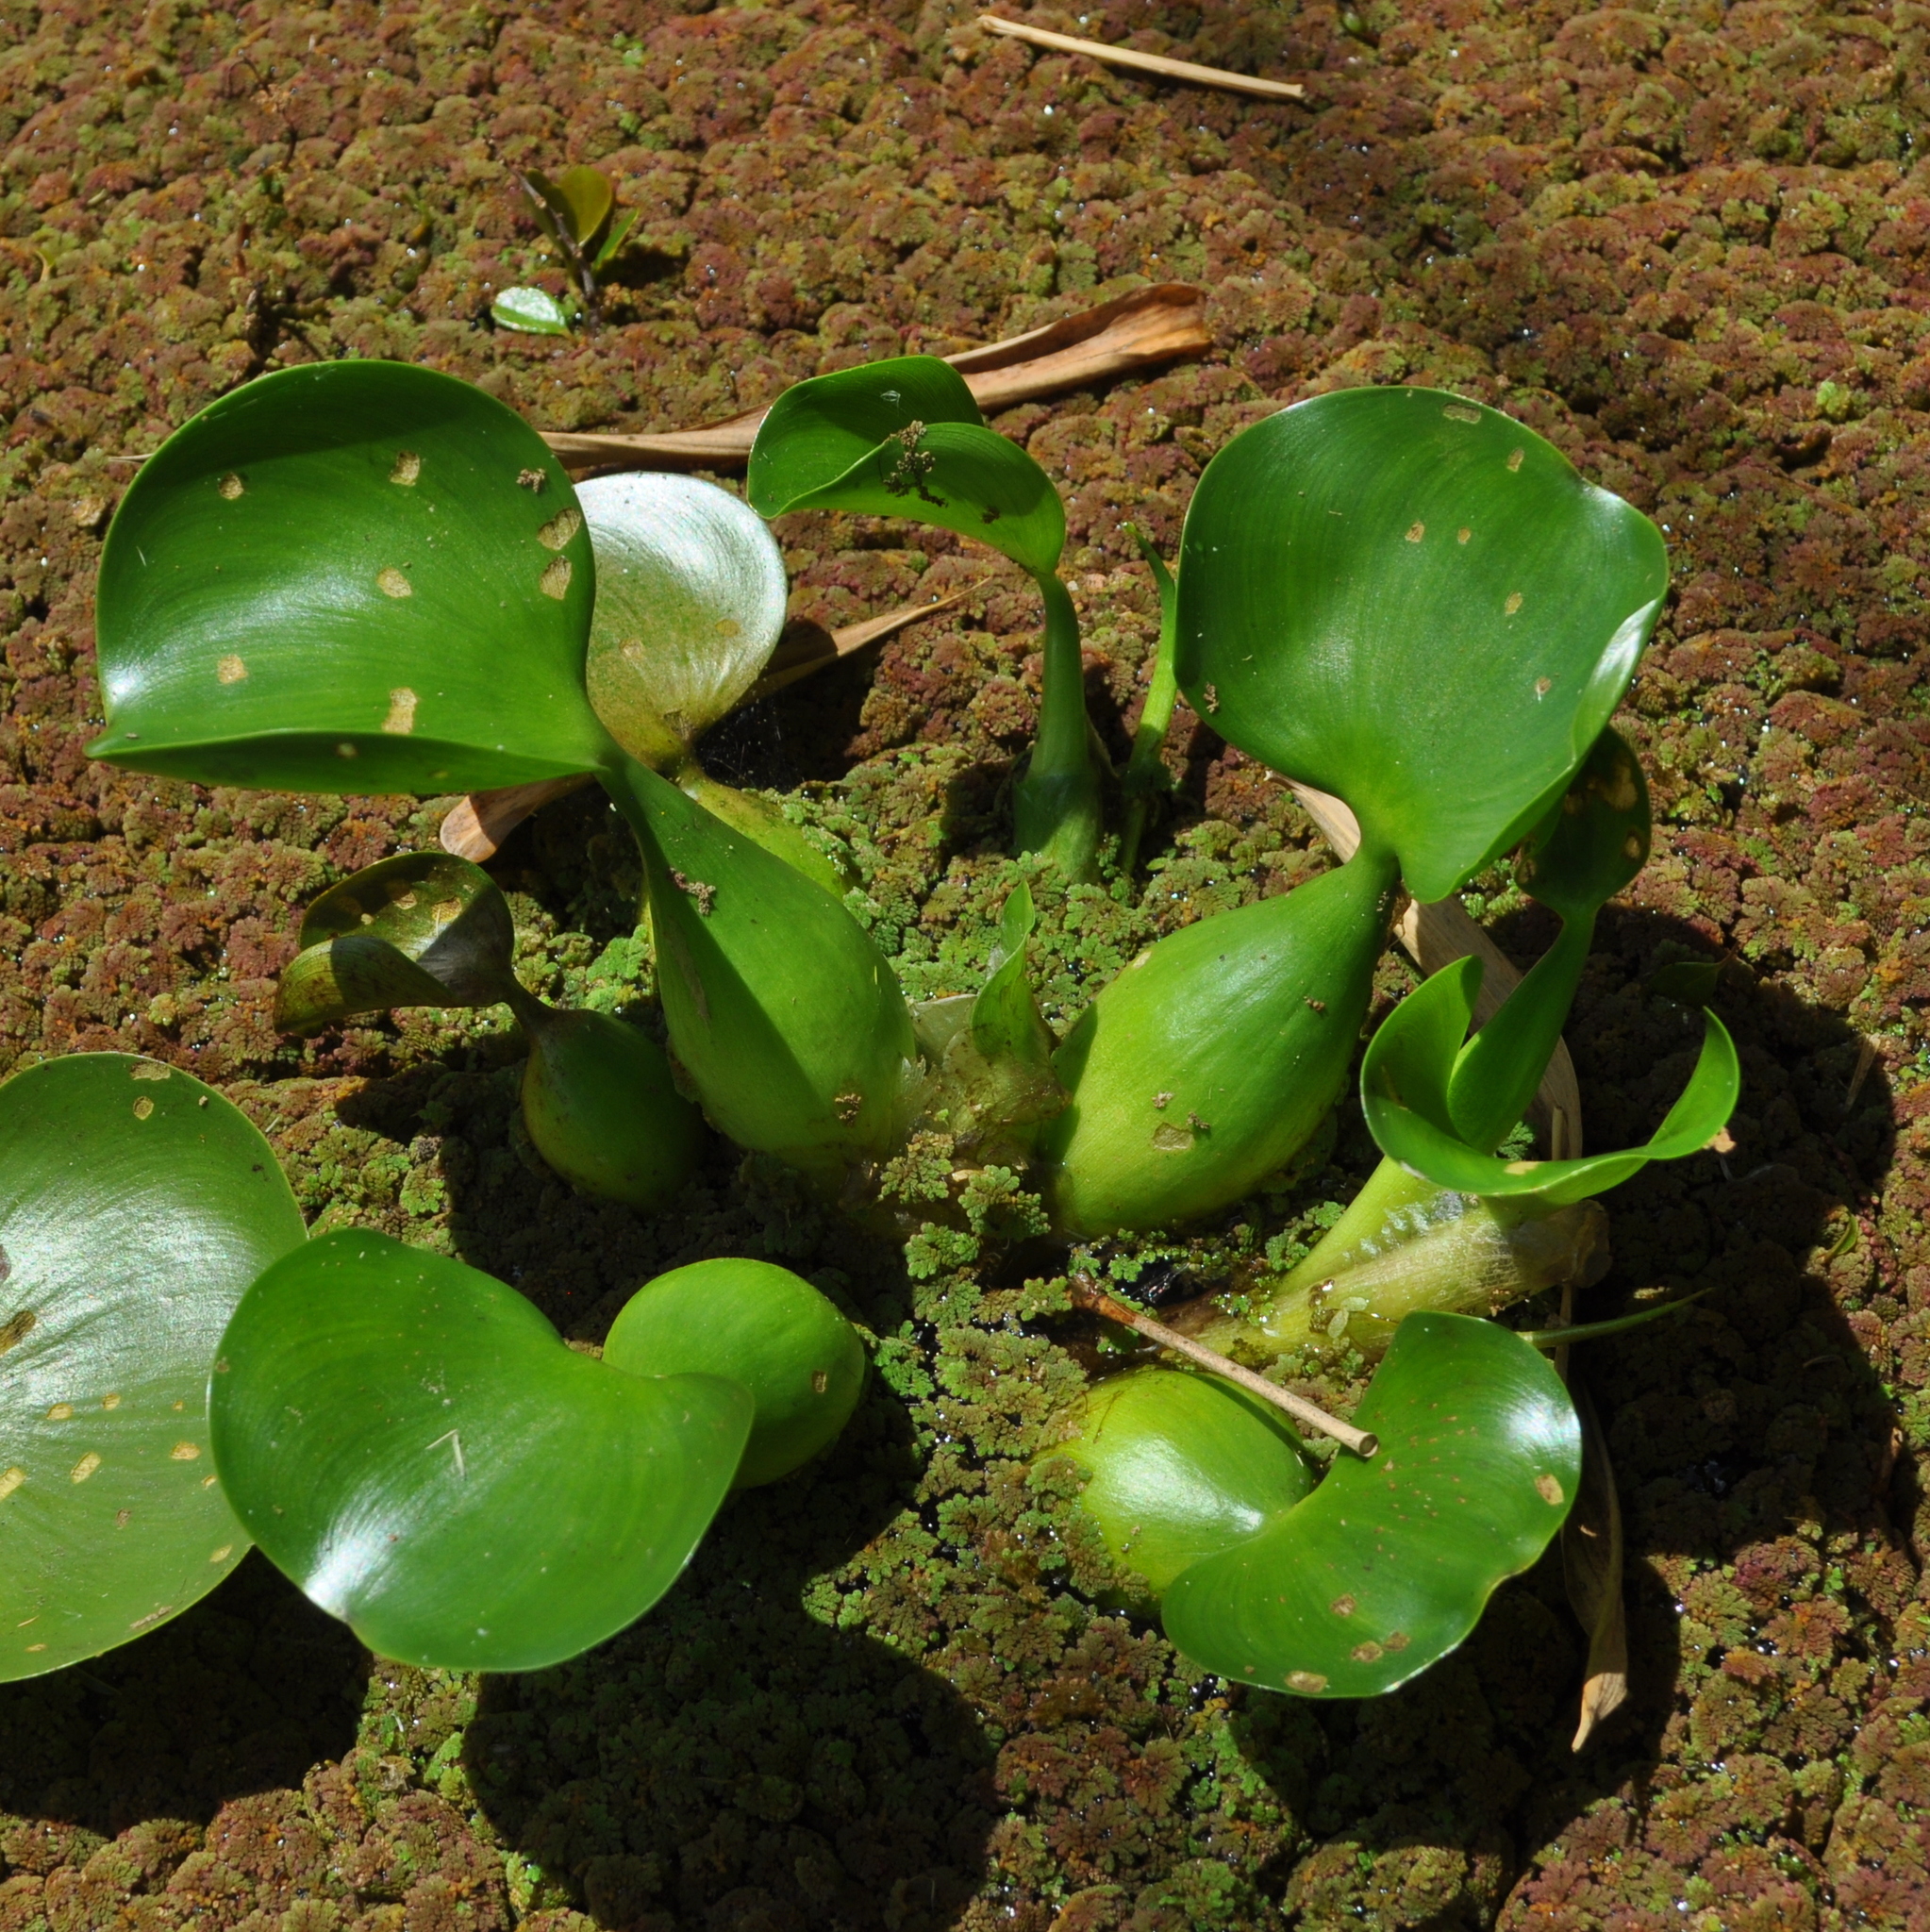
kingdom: Plantae
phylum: Tracheophyta
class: Liliopsida
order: Commelinales
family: Pontederiaceae
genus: Pontederia
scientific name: Pontederia crassipes
